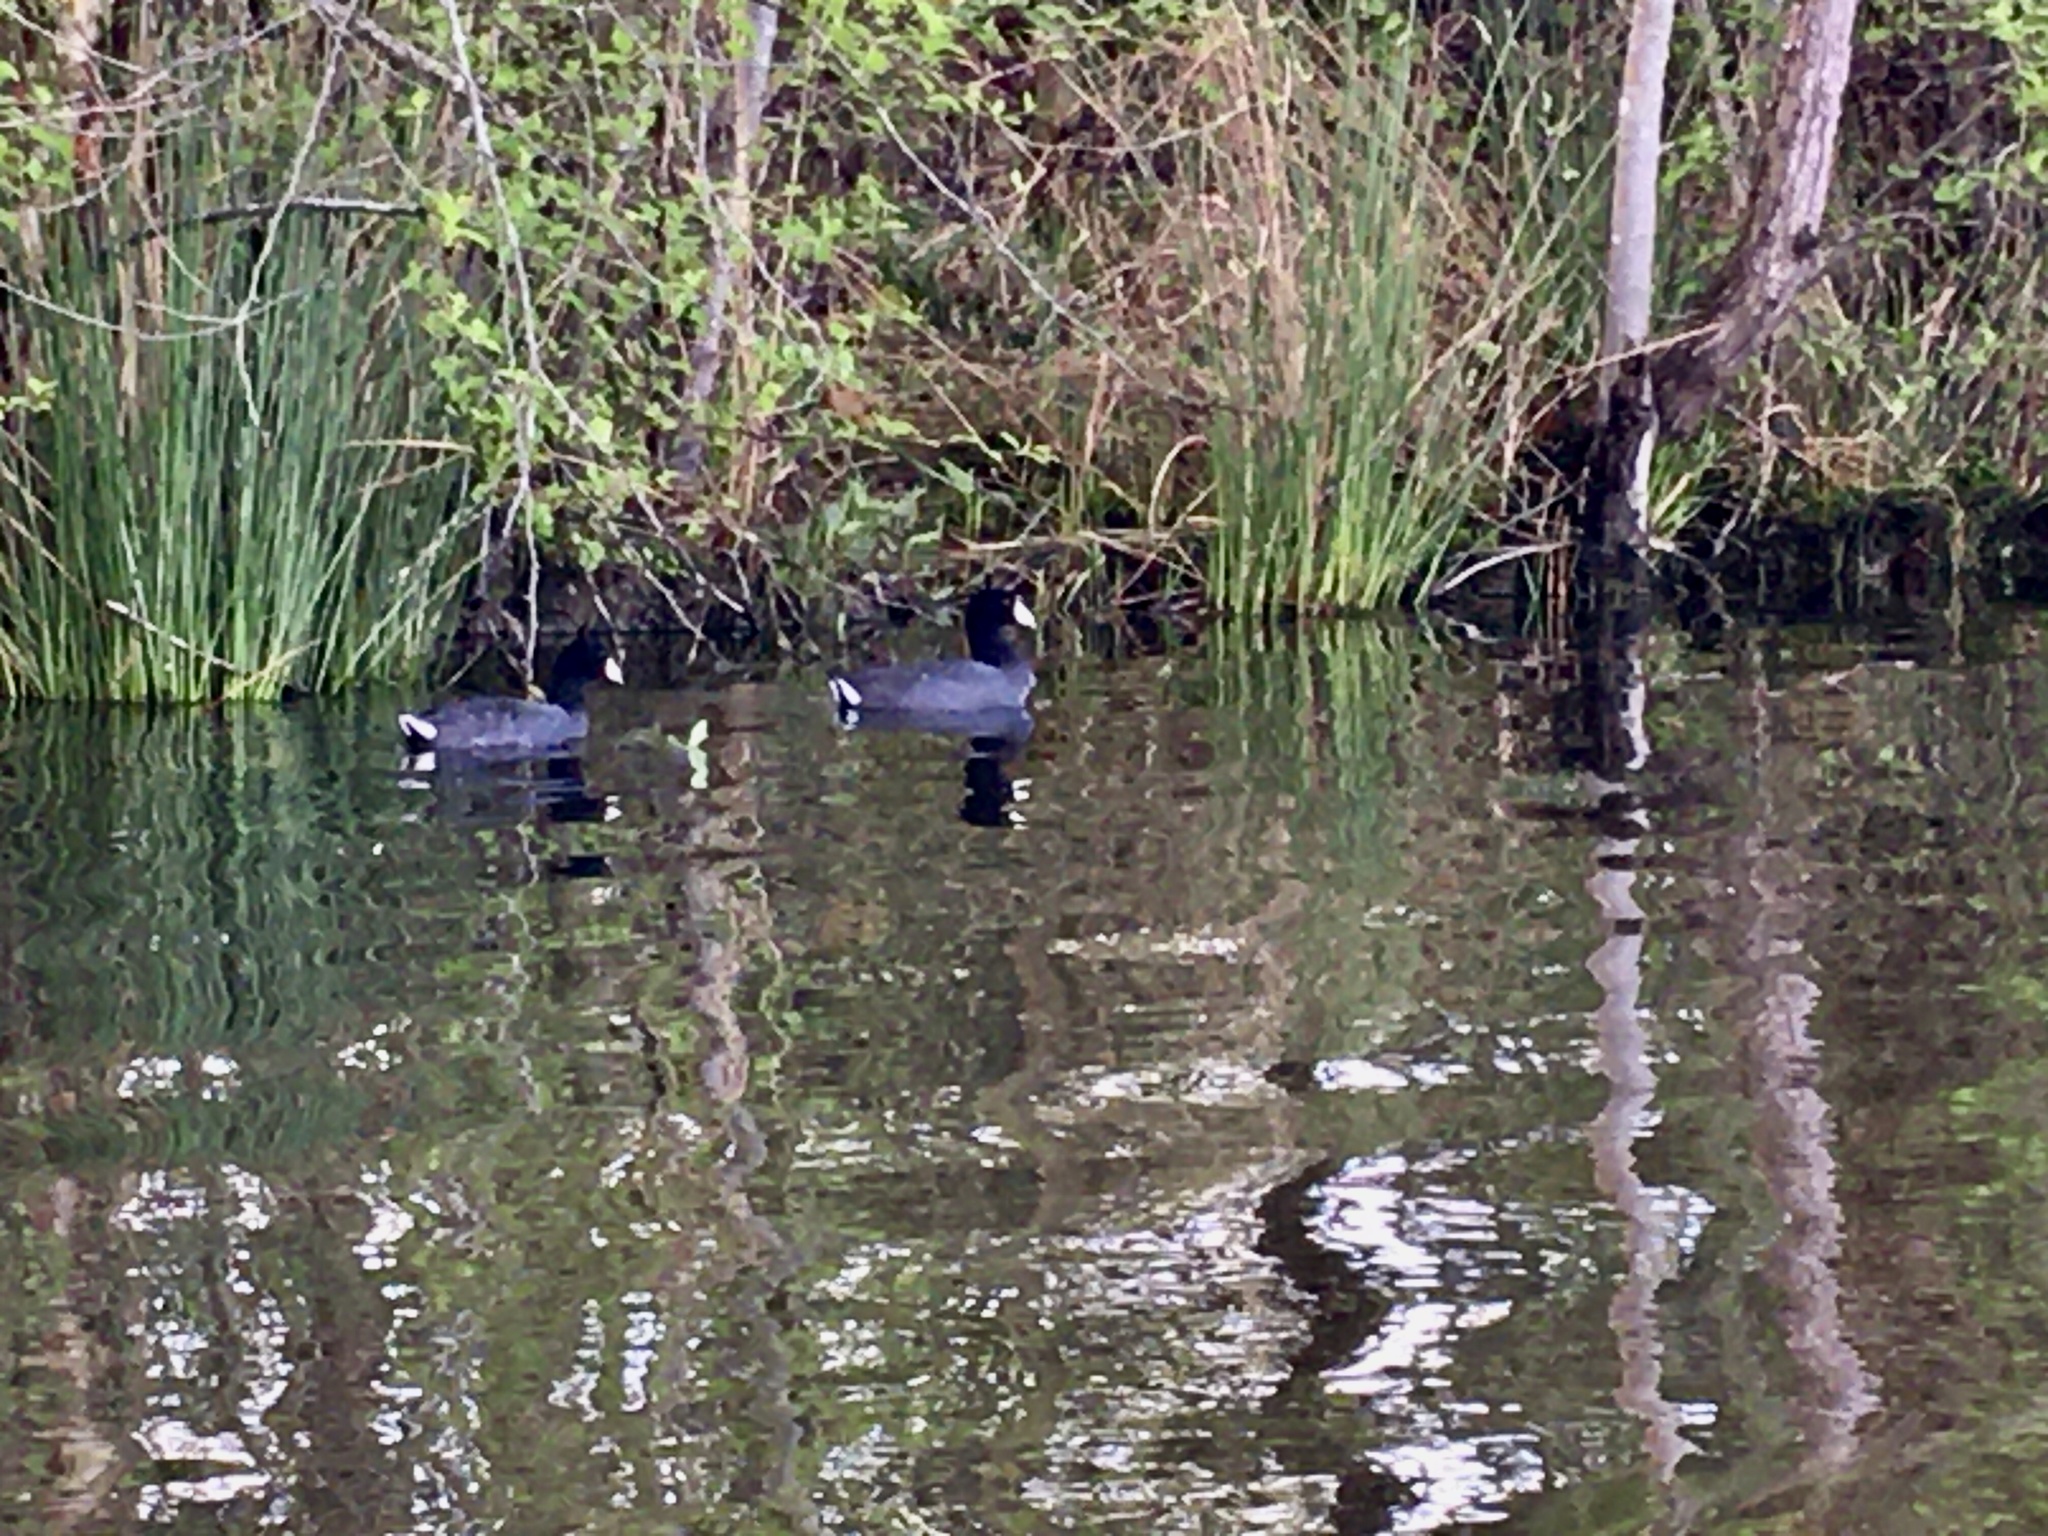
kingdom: Animalia
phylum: Chordata
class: Aves
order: Gruiformes
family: Rallidae
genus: Fulica
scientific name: Fulica americana
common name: American coot
